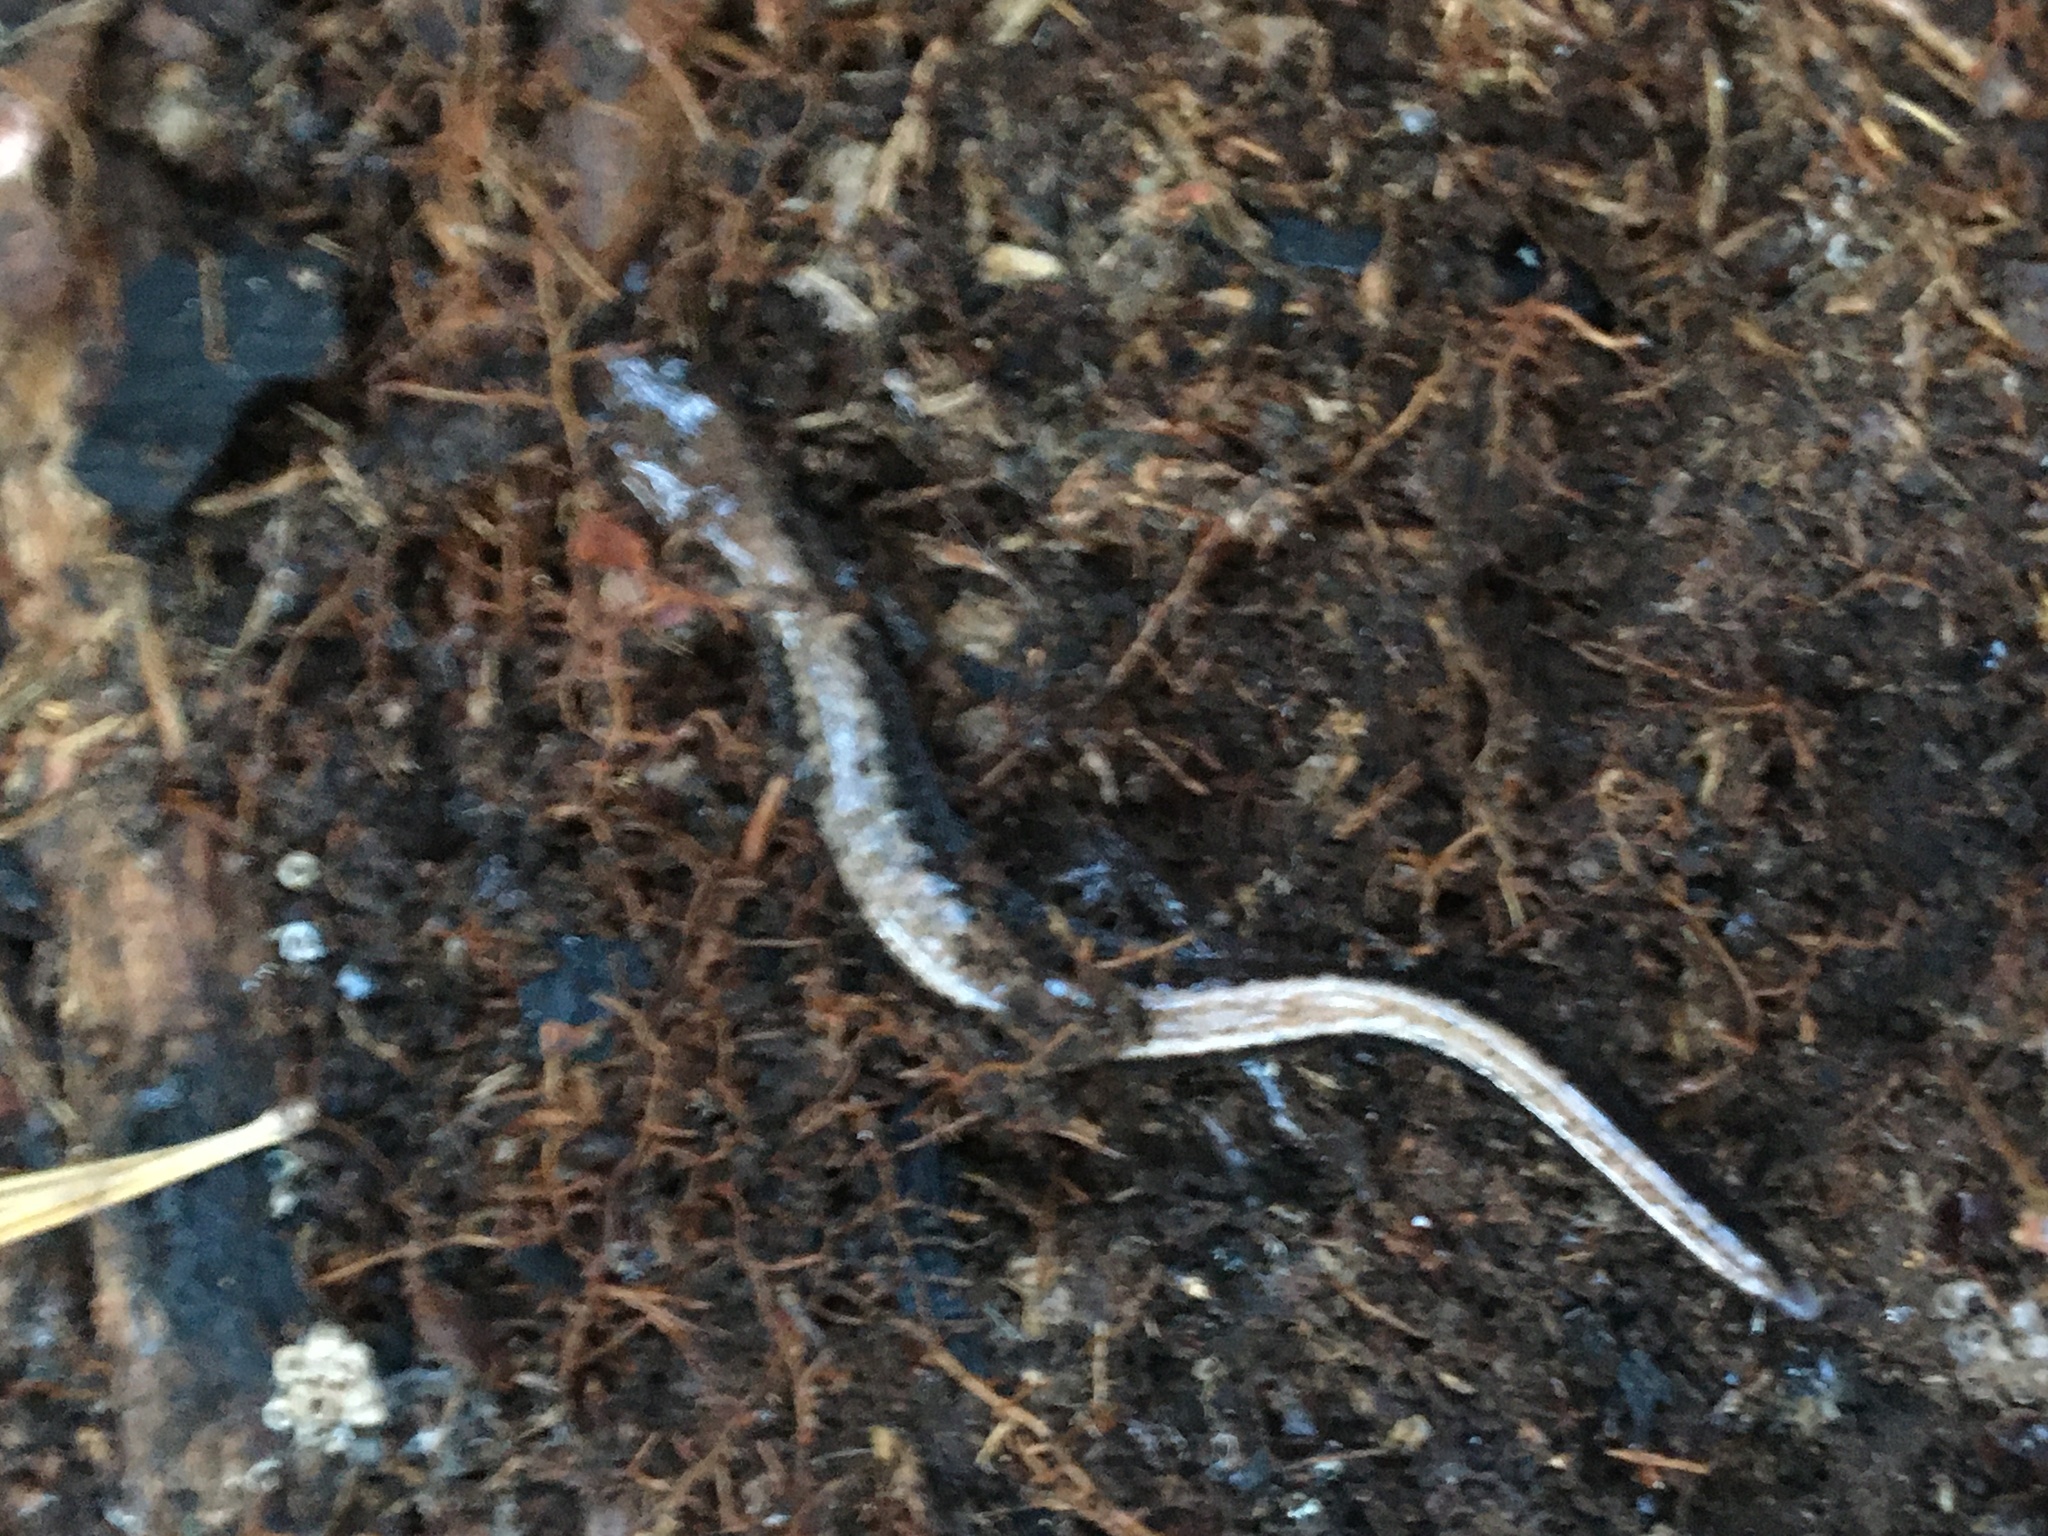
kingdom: Animalia
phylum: Chordata
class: Amphibia
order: Caudata
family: Plethodontidae
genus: Plethodon
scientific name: Plethodon cinereus
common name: Redback salamander
